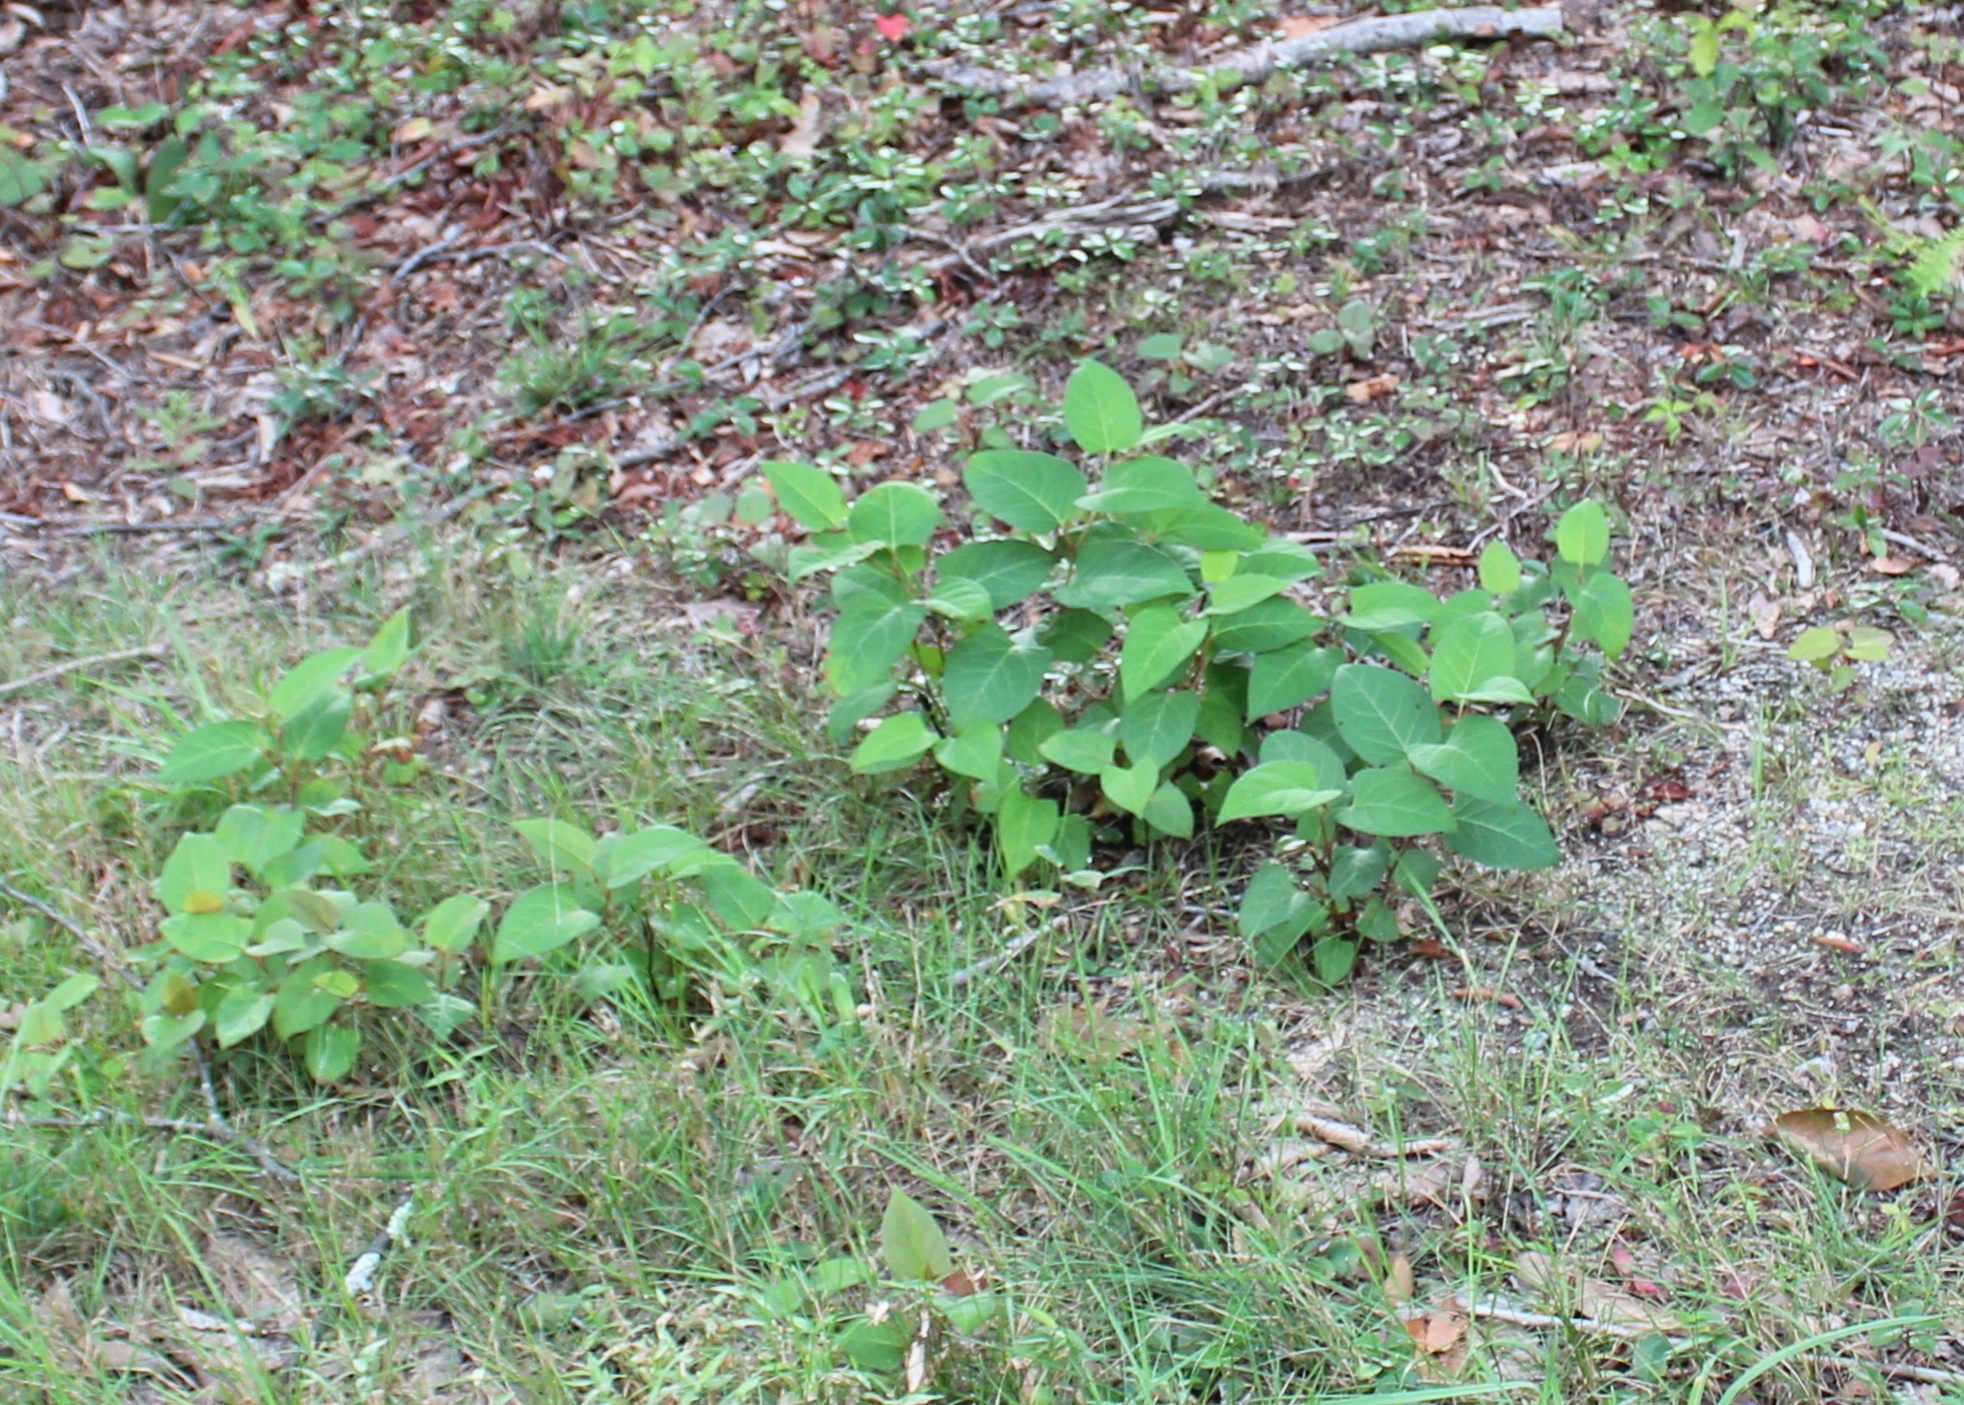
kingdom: Plantae
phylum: Tracheophyta
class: Magnoliopsida
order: Caryophyllales
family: Polygonaceae
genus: Reynoutria
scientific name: Reynoutria japonica
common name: Japanese knotweed
